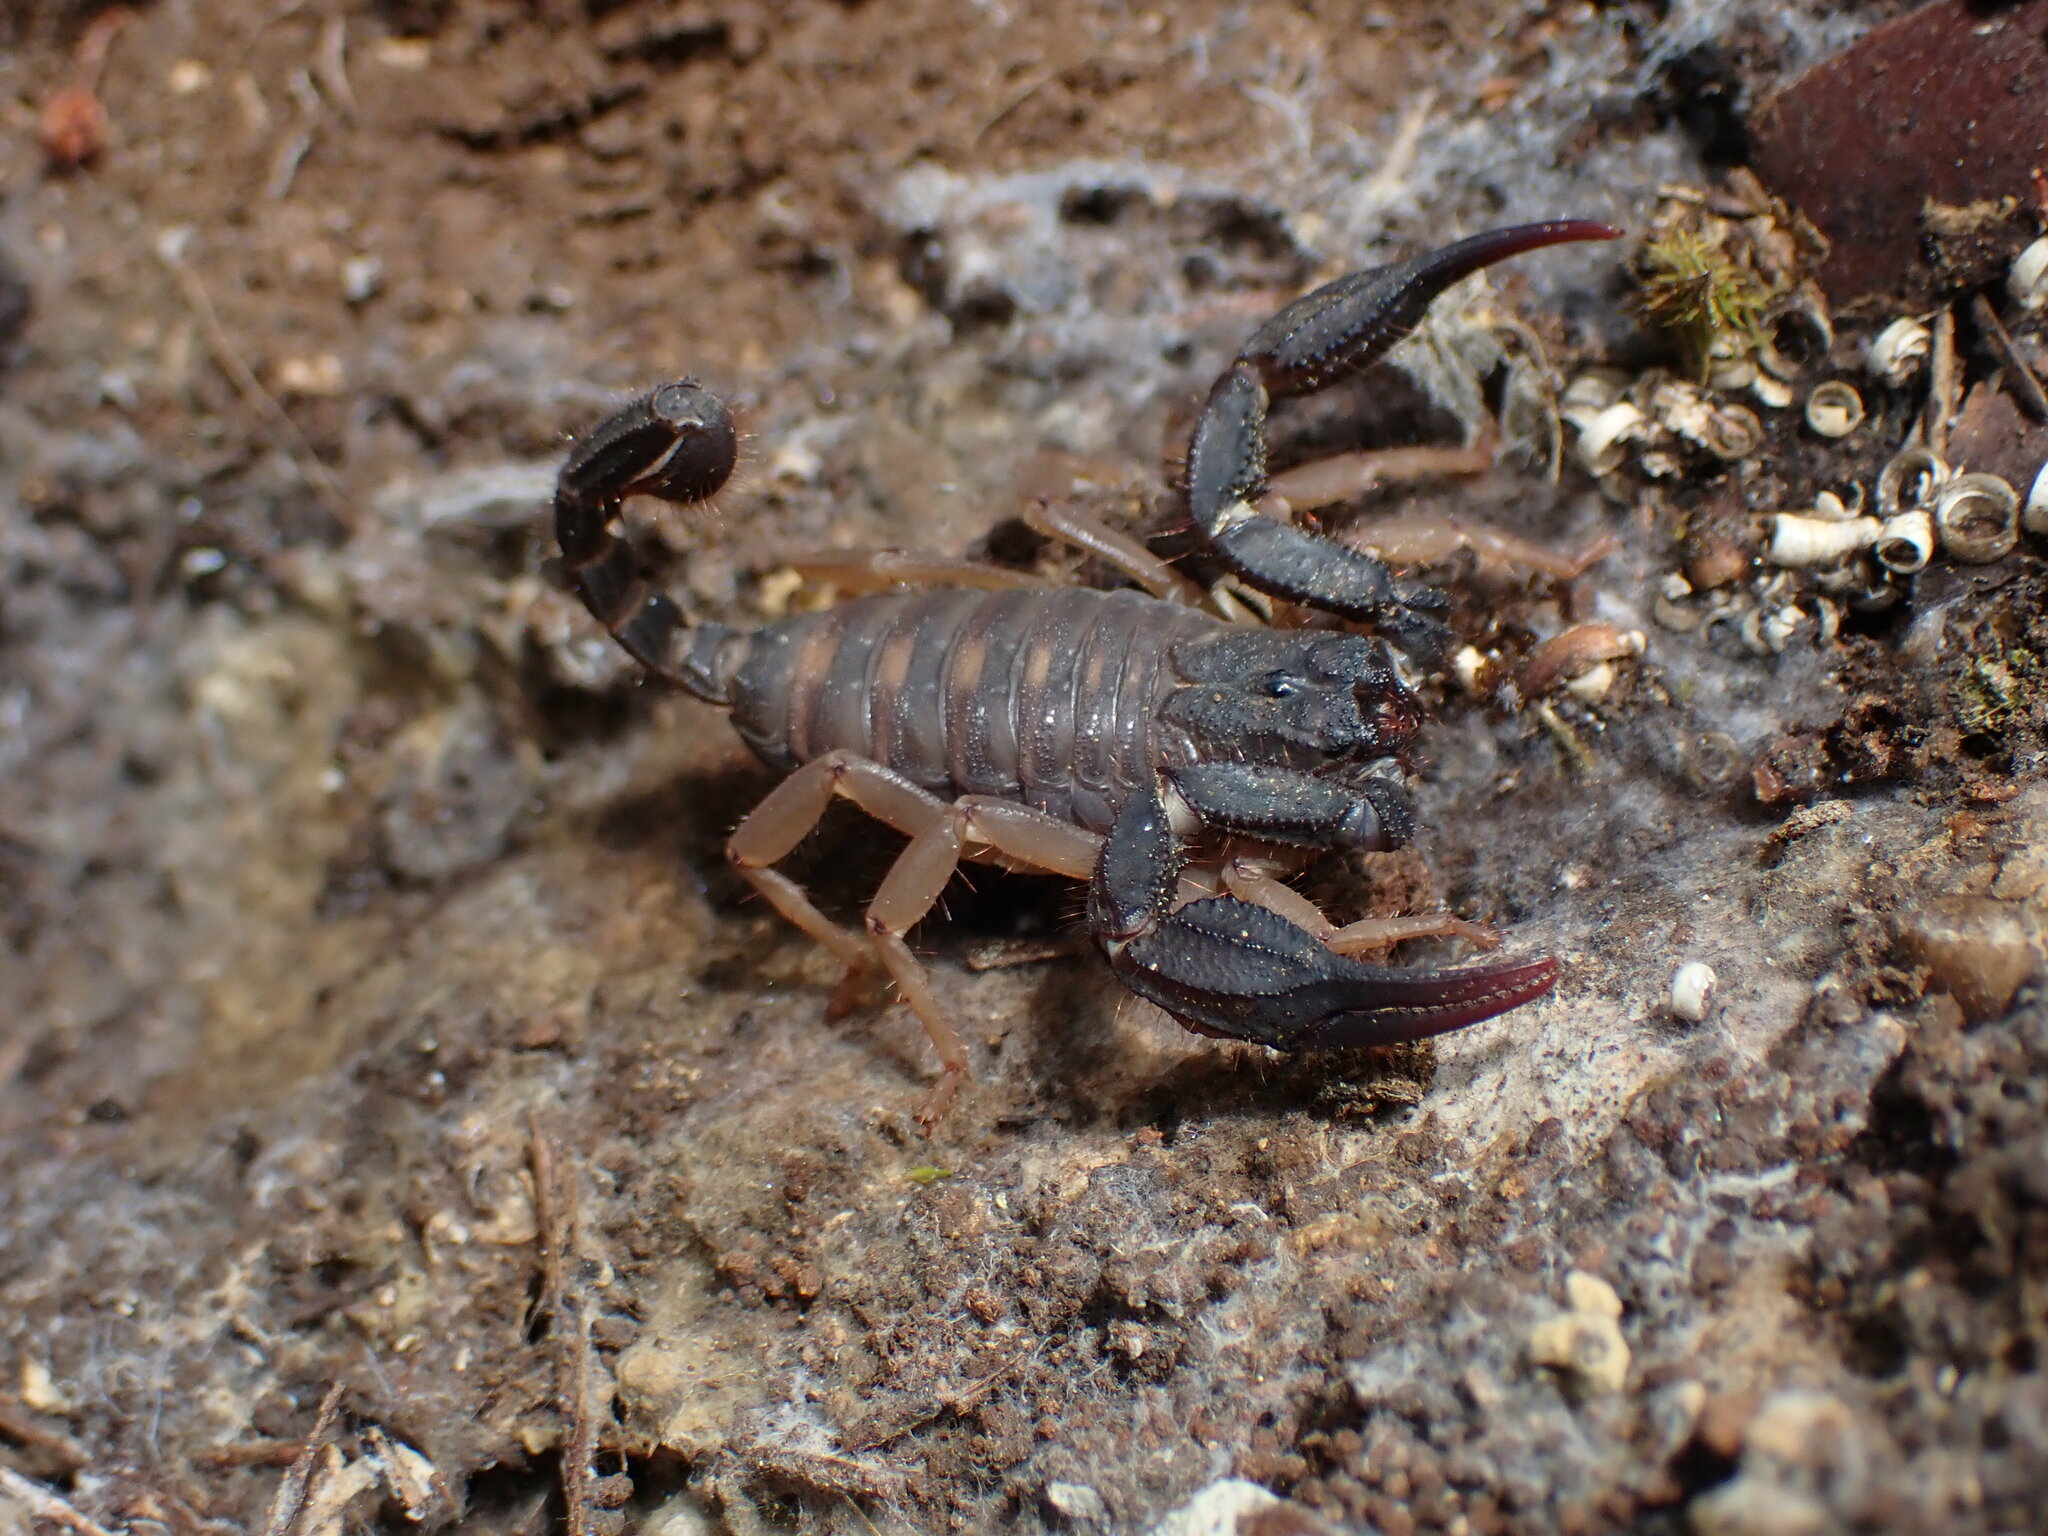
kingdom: Animalia
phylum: Arthropoda
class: Arachnida
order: Scorpiones
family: Iuridae
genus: Anatoliurus
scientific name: Anatoliurus kraepelini
